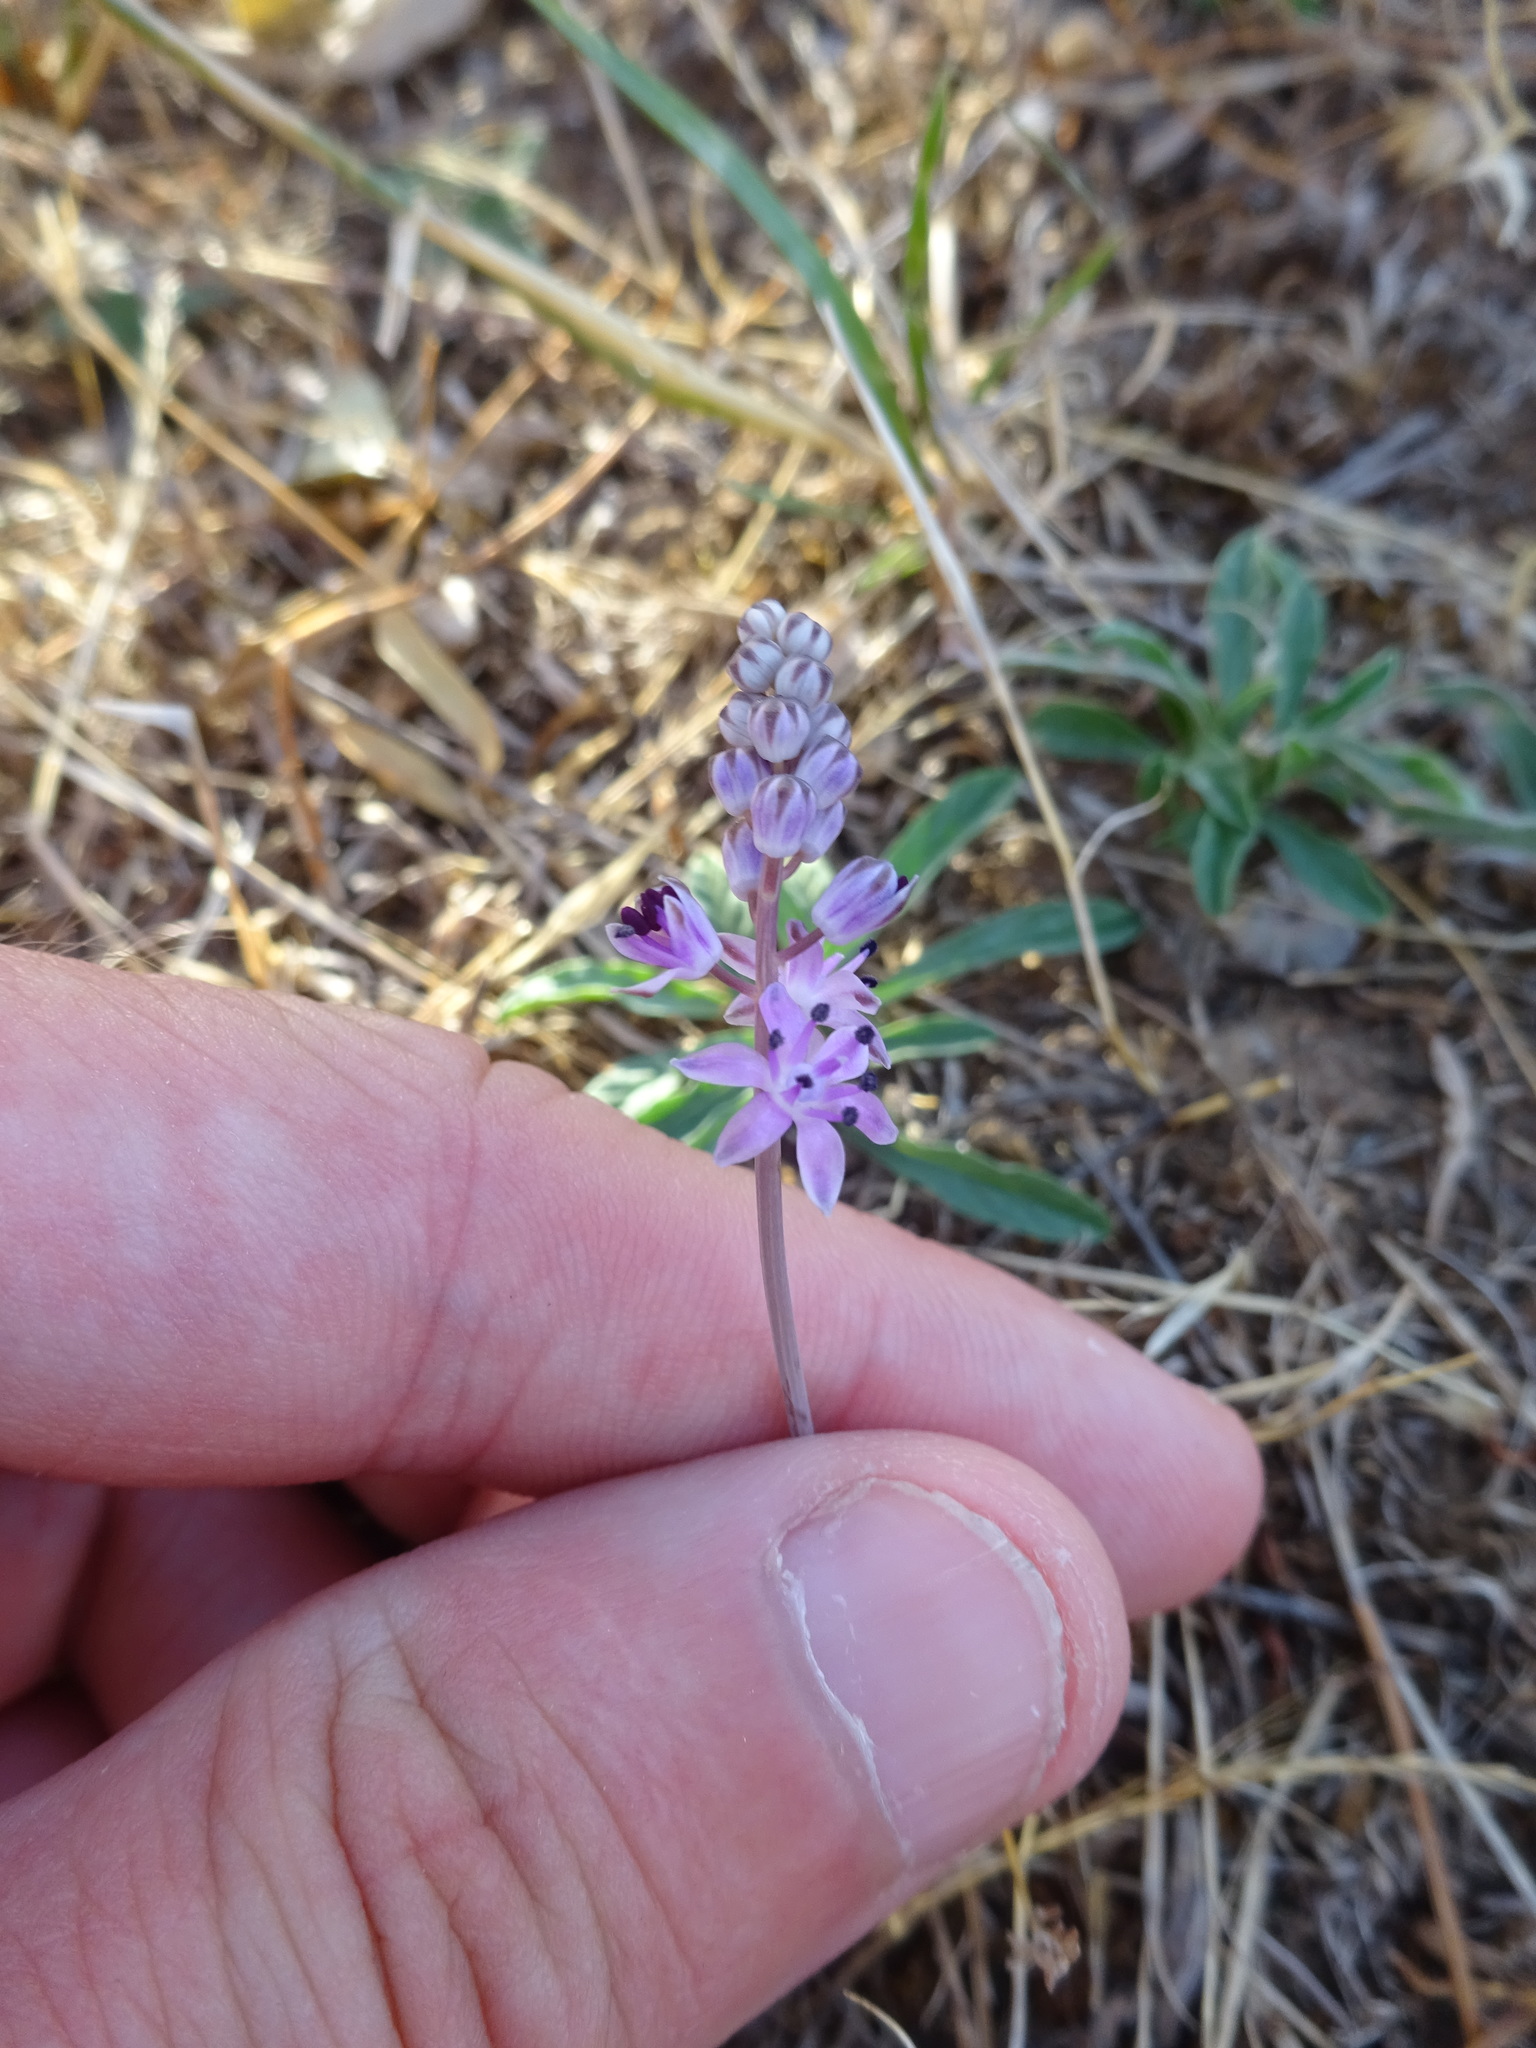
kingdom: Plantae
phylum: Tracheophyta
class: Liliopsida
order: Asparagales
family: Asparagaceae
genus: Prospero
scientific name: Prospero autumnale
